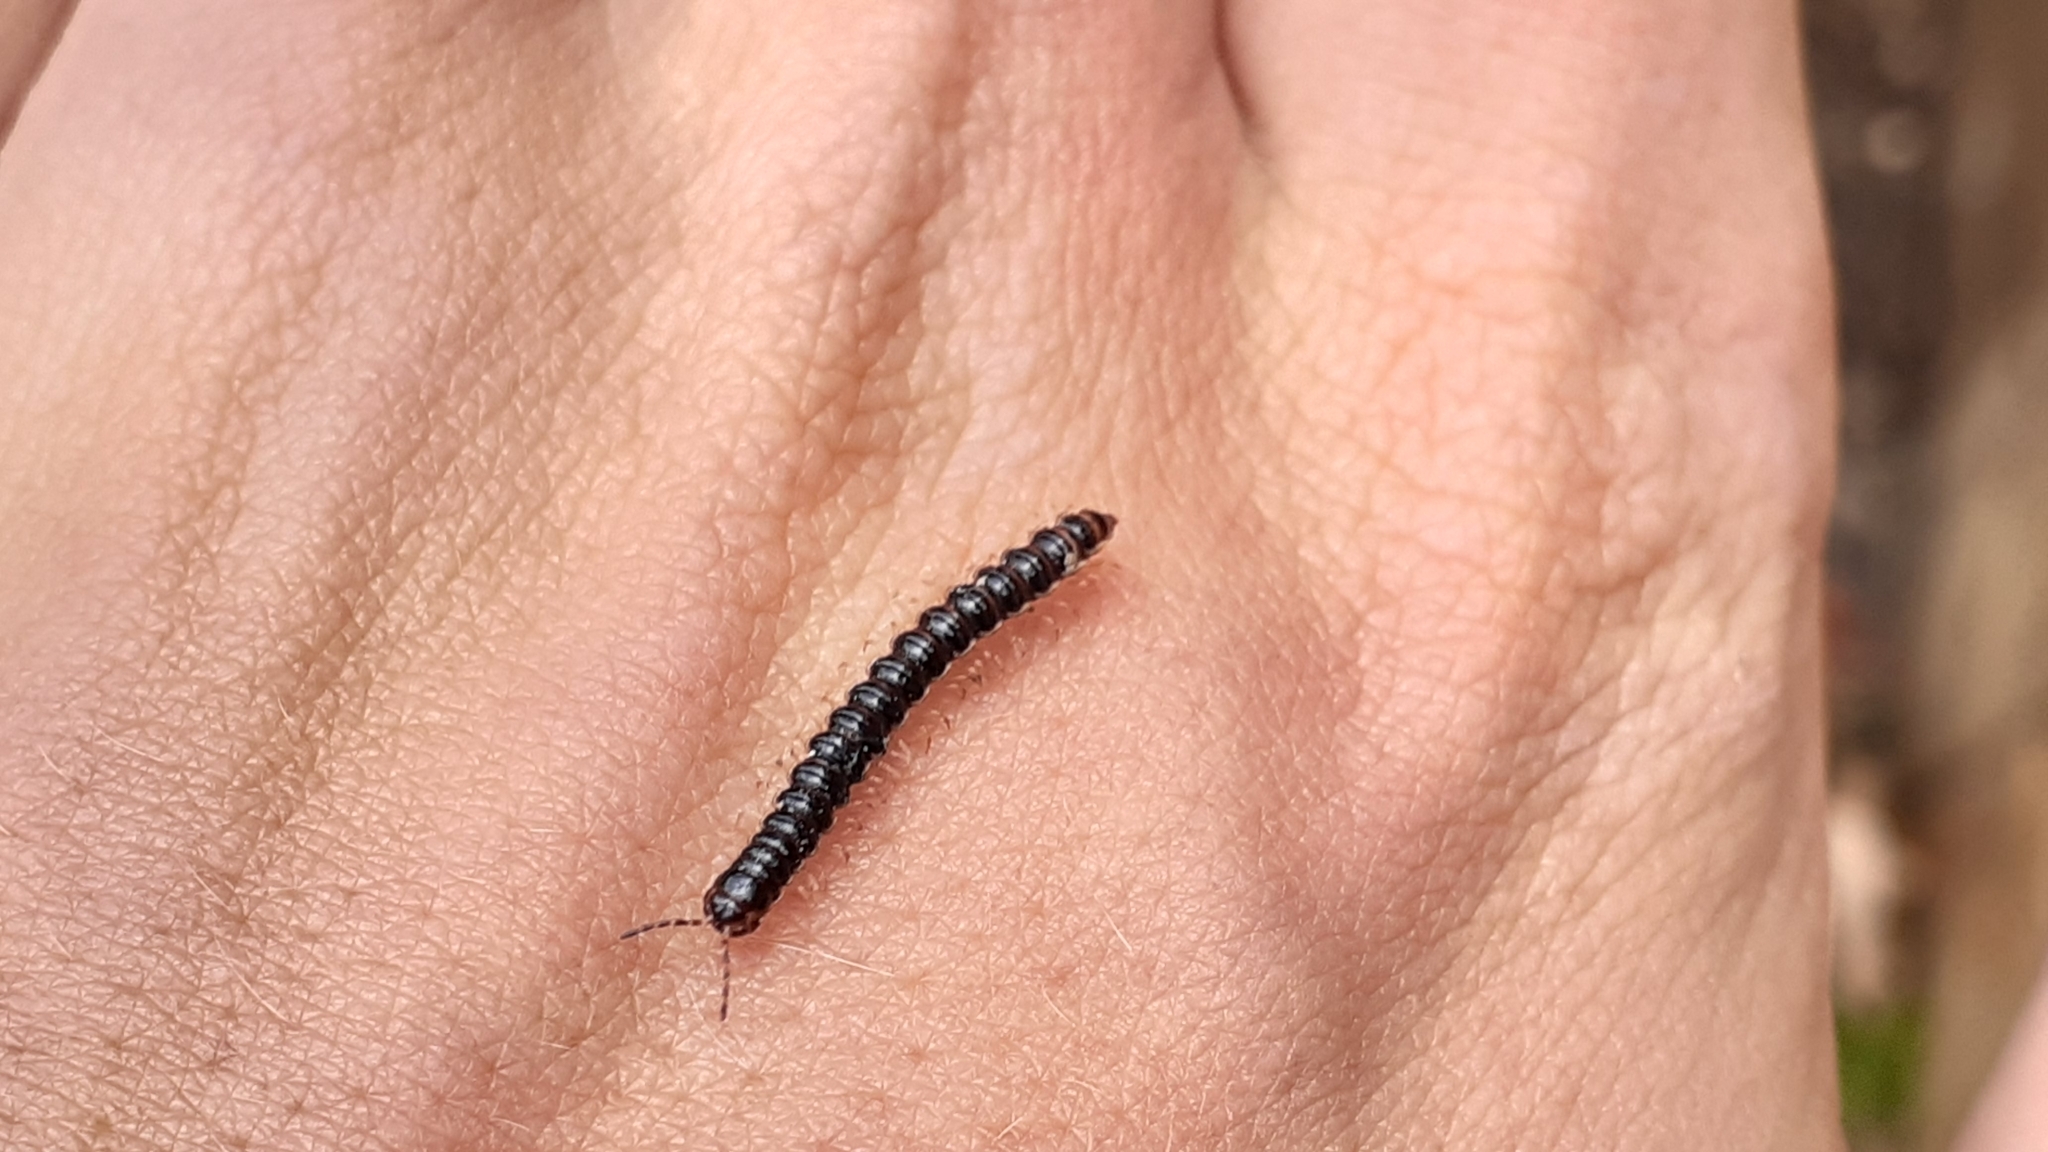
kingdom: Animalia
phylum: Arthropoda
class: Diplopoda
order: Polydesmida
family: Paradoxosomatidae
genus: Oxidus
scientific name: Oxidus gracilis
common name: Greenhouse millipede
